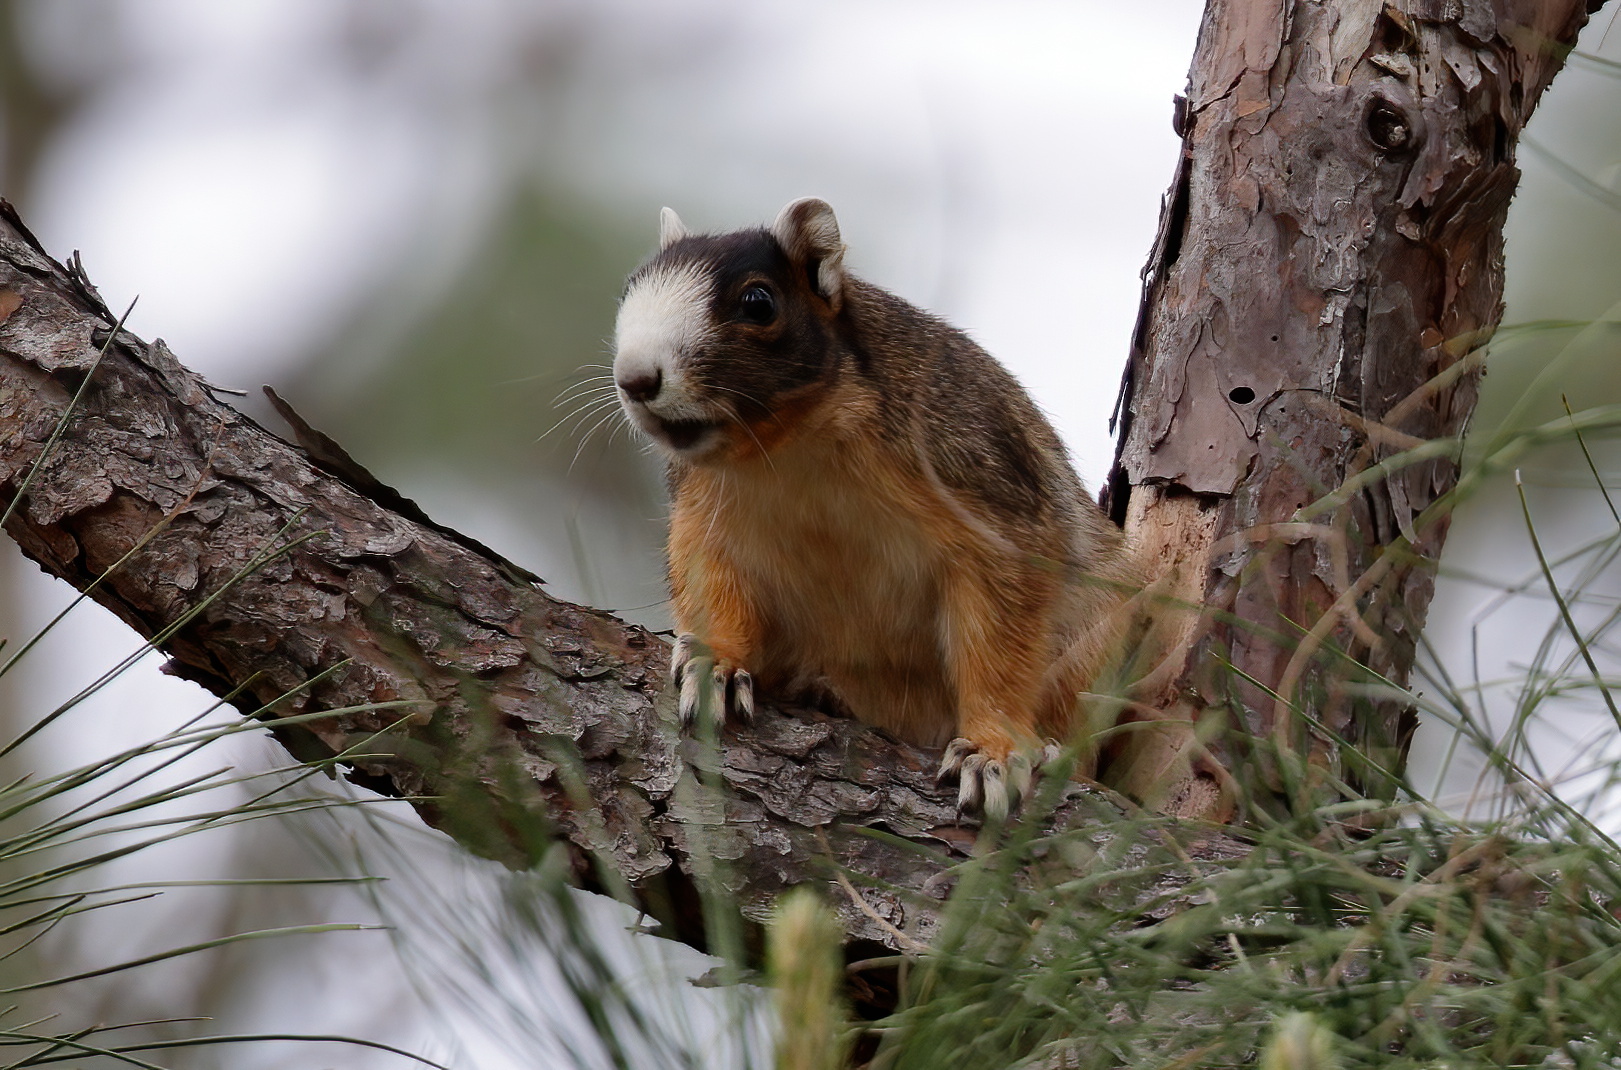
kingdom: Animalia
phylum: Chordata
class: Mammalia
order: Rodentia
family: Sciuridae
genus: Sciurus
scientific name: Sciurus niger
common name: Fox squirrel
